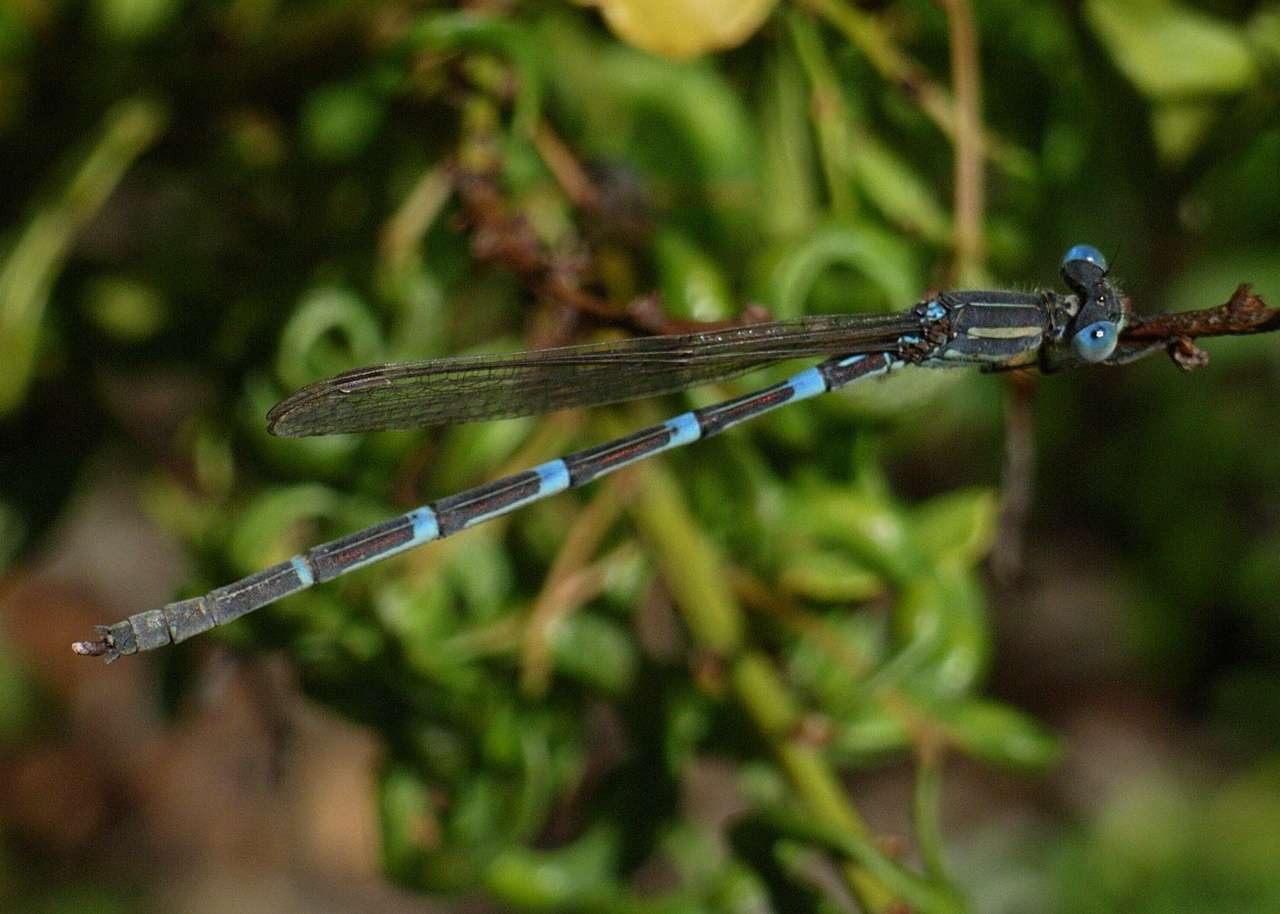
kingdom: Animalia
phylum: Arthropoda
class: Insecta
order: Odonata
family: Lestidae
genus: Austrolestes
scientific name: Austrolestes leda
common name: Wandering ringtail
